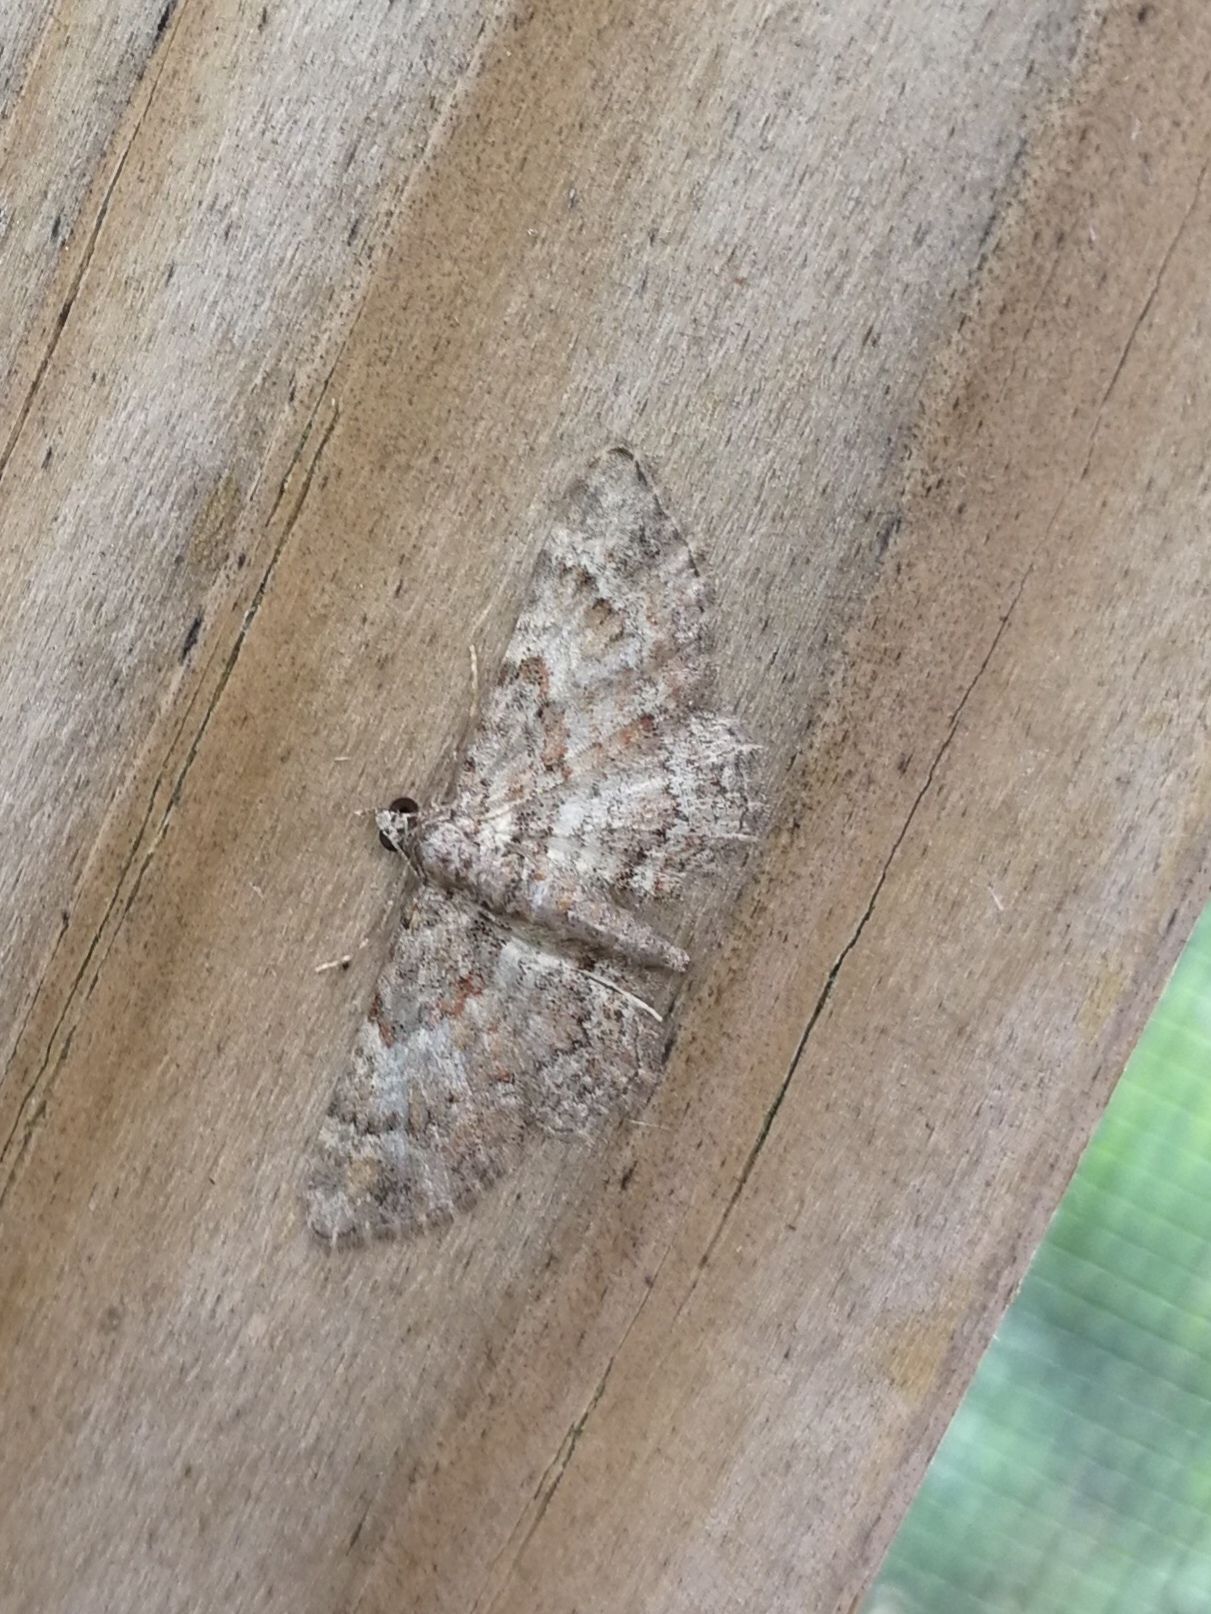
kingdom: Animalia
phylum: Arthropoda
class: Insecta
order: Lepidoptera
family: Geometridae
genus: Gymnoscelis
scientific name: Gymnoscelis rufifasciata
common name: Double-striped pug
